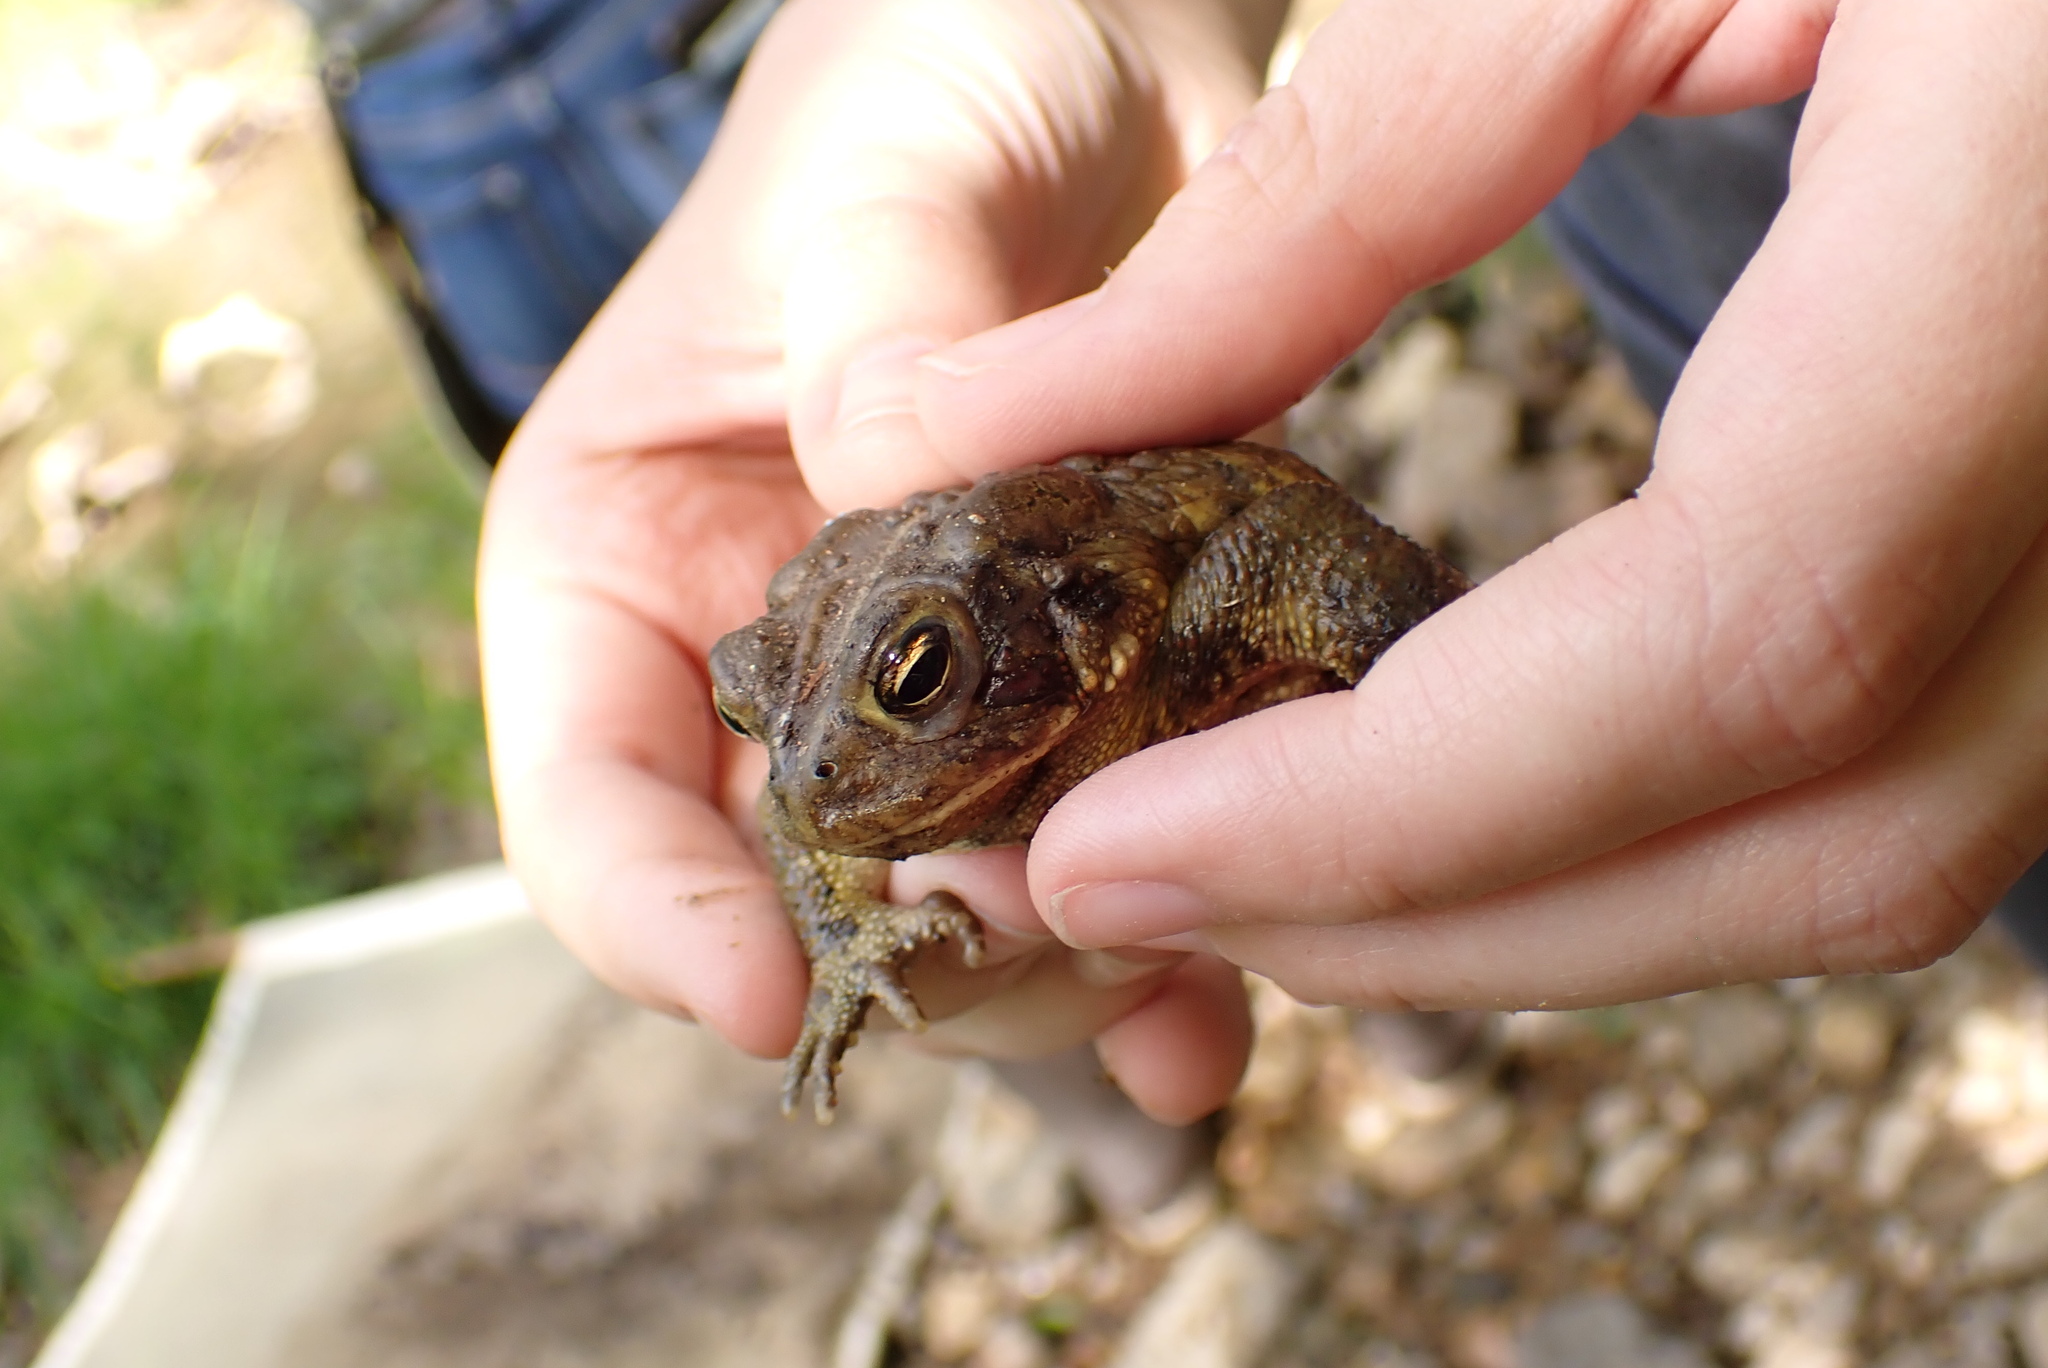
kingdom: Animalia
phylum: Chordata
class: Amphibia
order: Anura
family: Bufonidae
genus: Anaxyrus
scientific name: Anaxyrus americanus
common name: American toad
